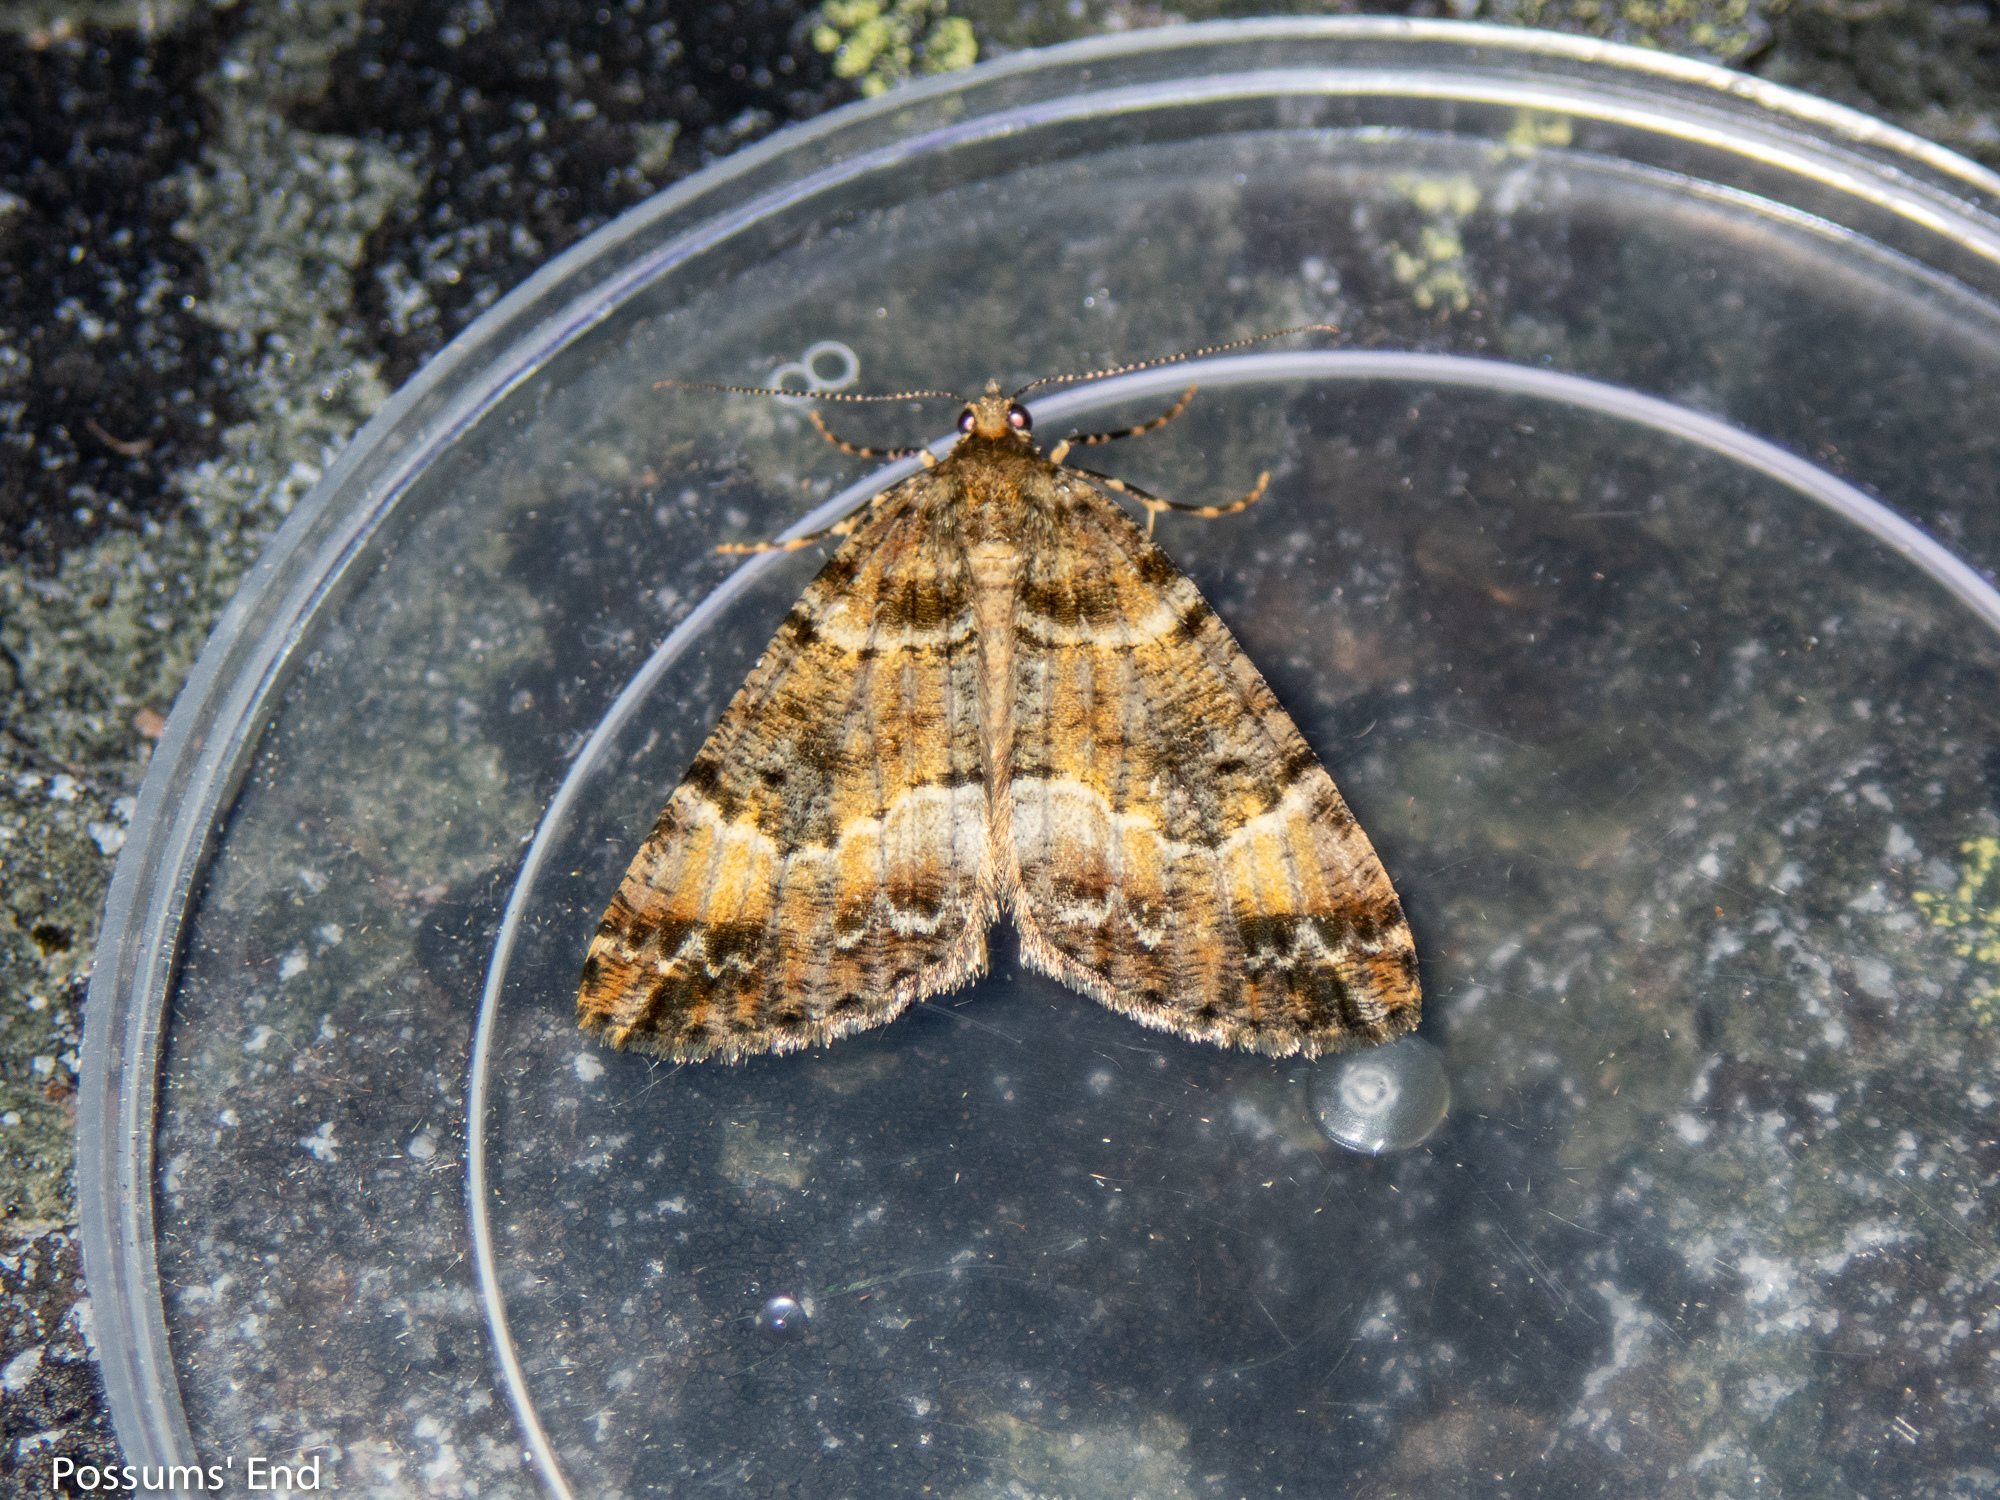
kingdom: Animalia
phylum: Arthropoda
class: Insecta
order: Lepidoptera
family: Geometridae
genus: Pseudocoremia
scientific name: Pseudocoremia productata
